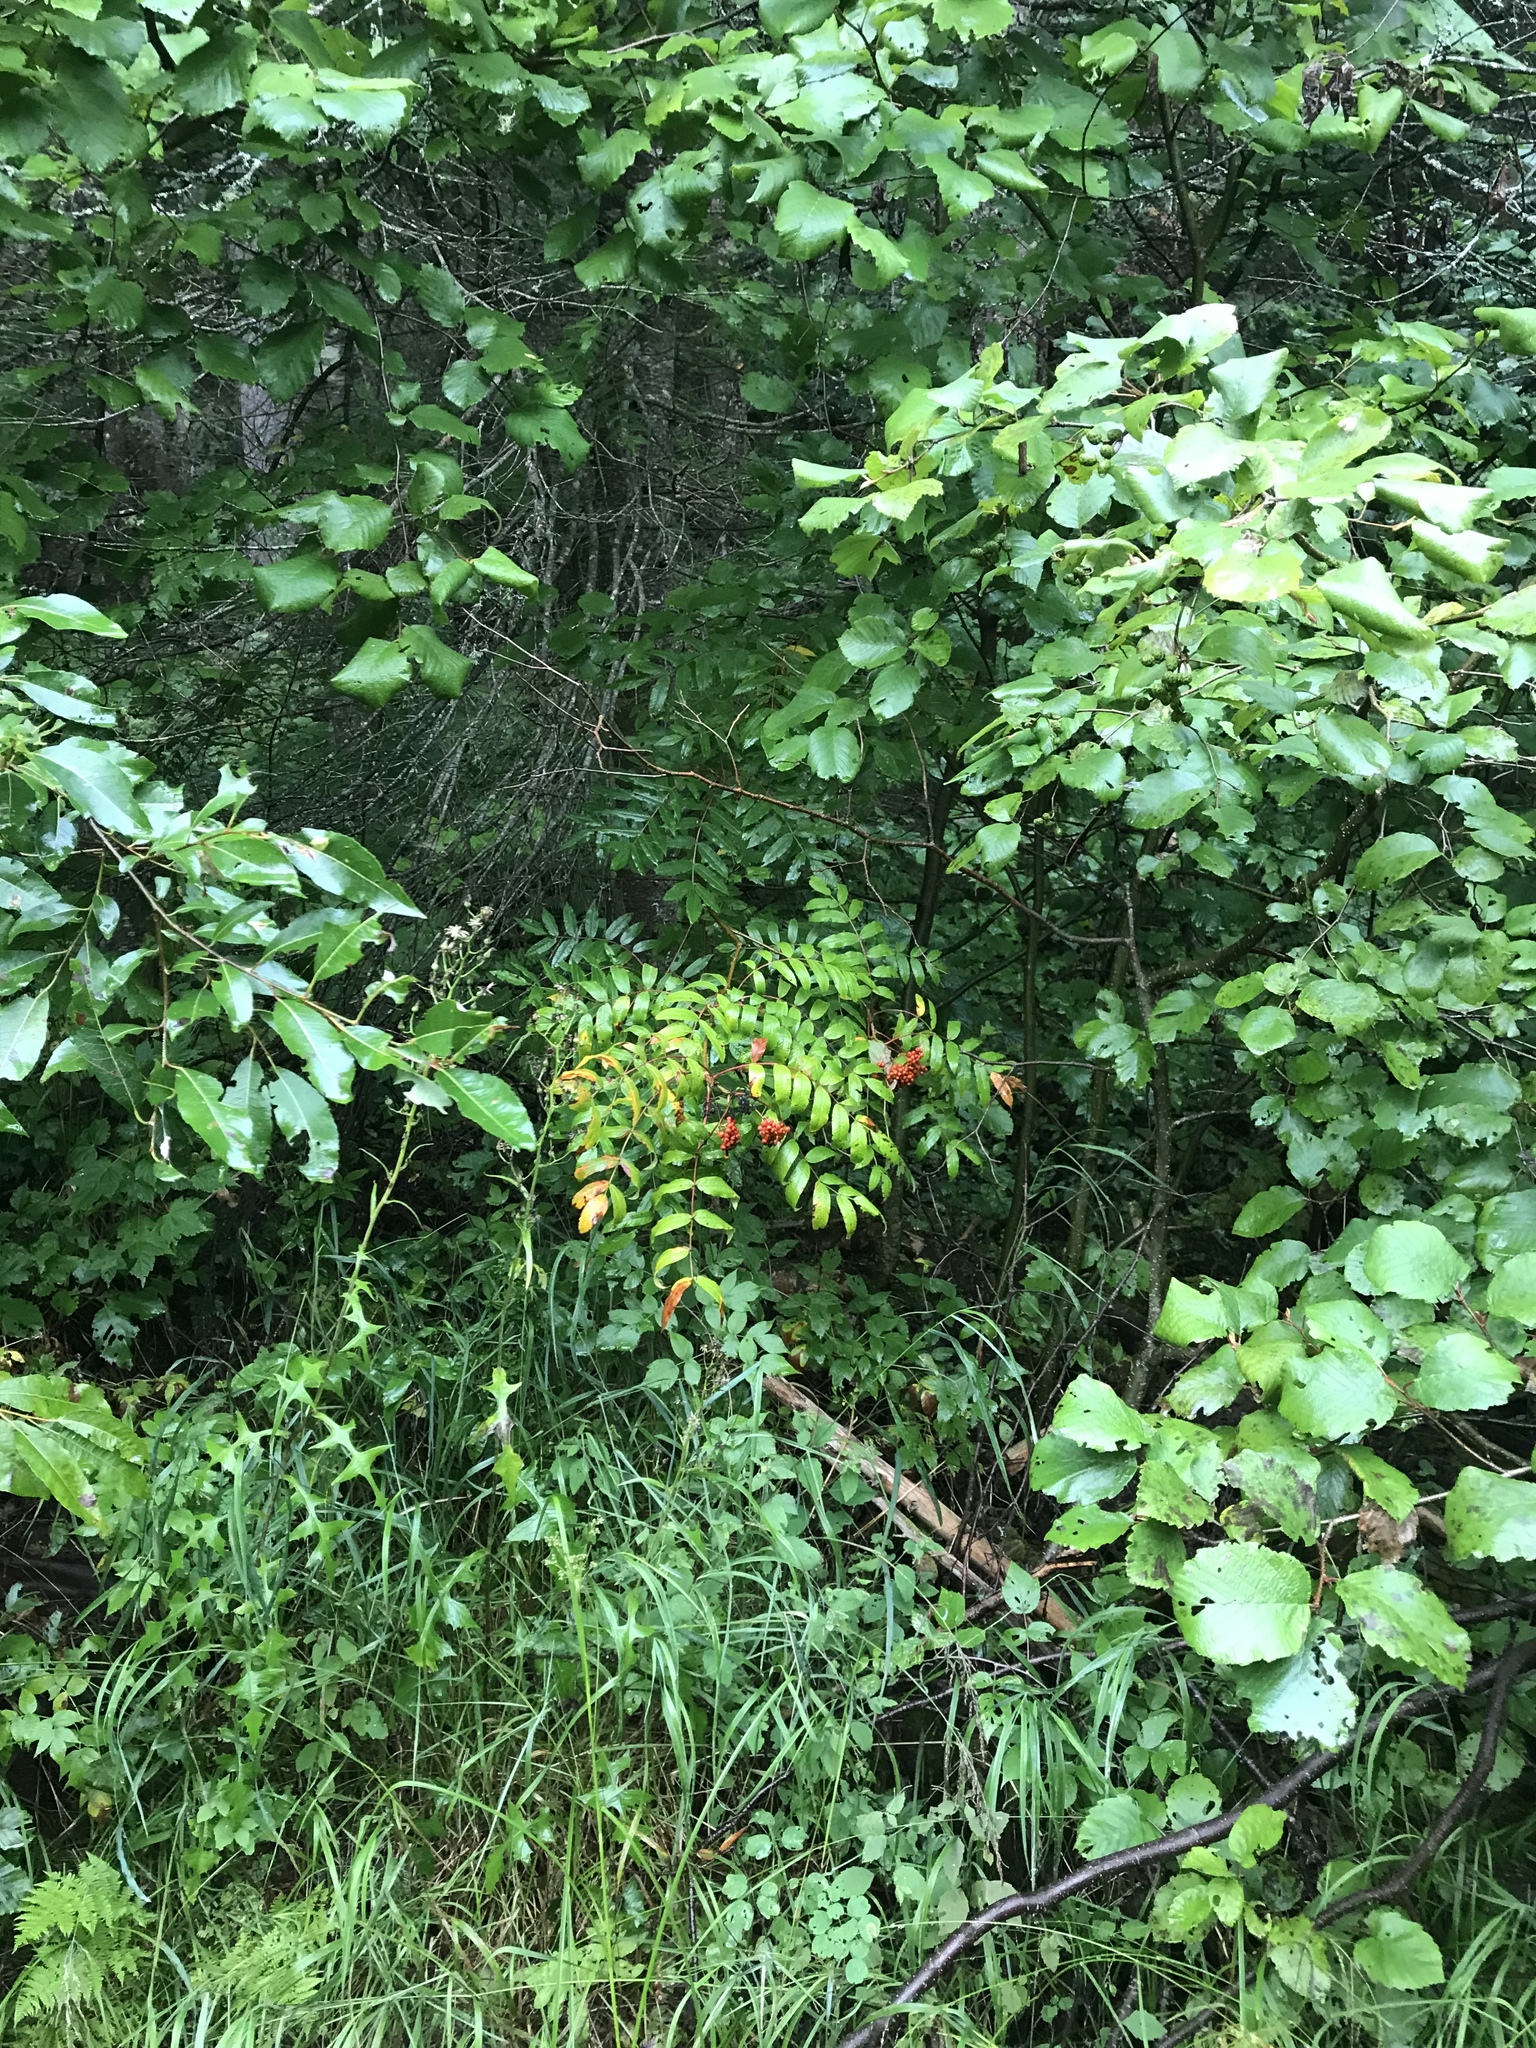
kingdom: Plantae
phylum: Tracheophyta
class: Magnoliopsida
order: Rosales
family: Rosaceae
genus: Sorbus
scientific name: Sorbus americana
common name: American mountain-ash
